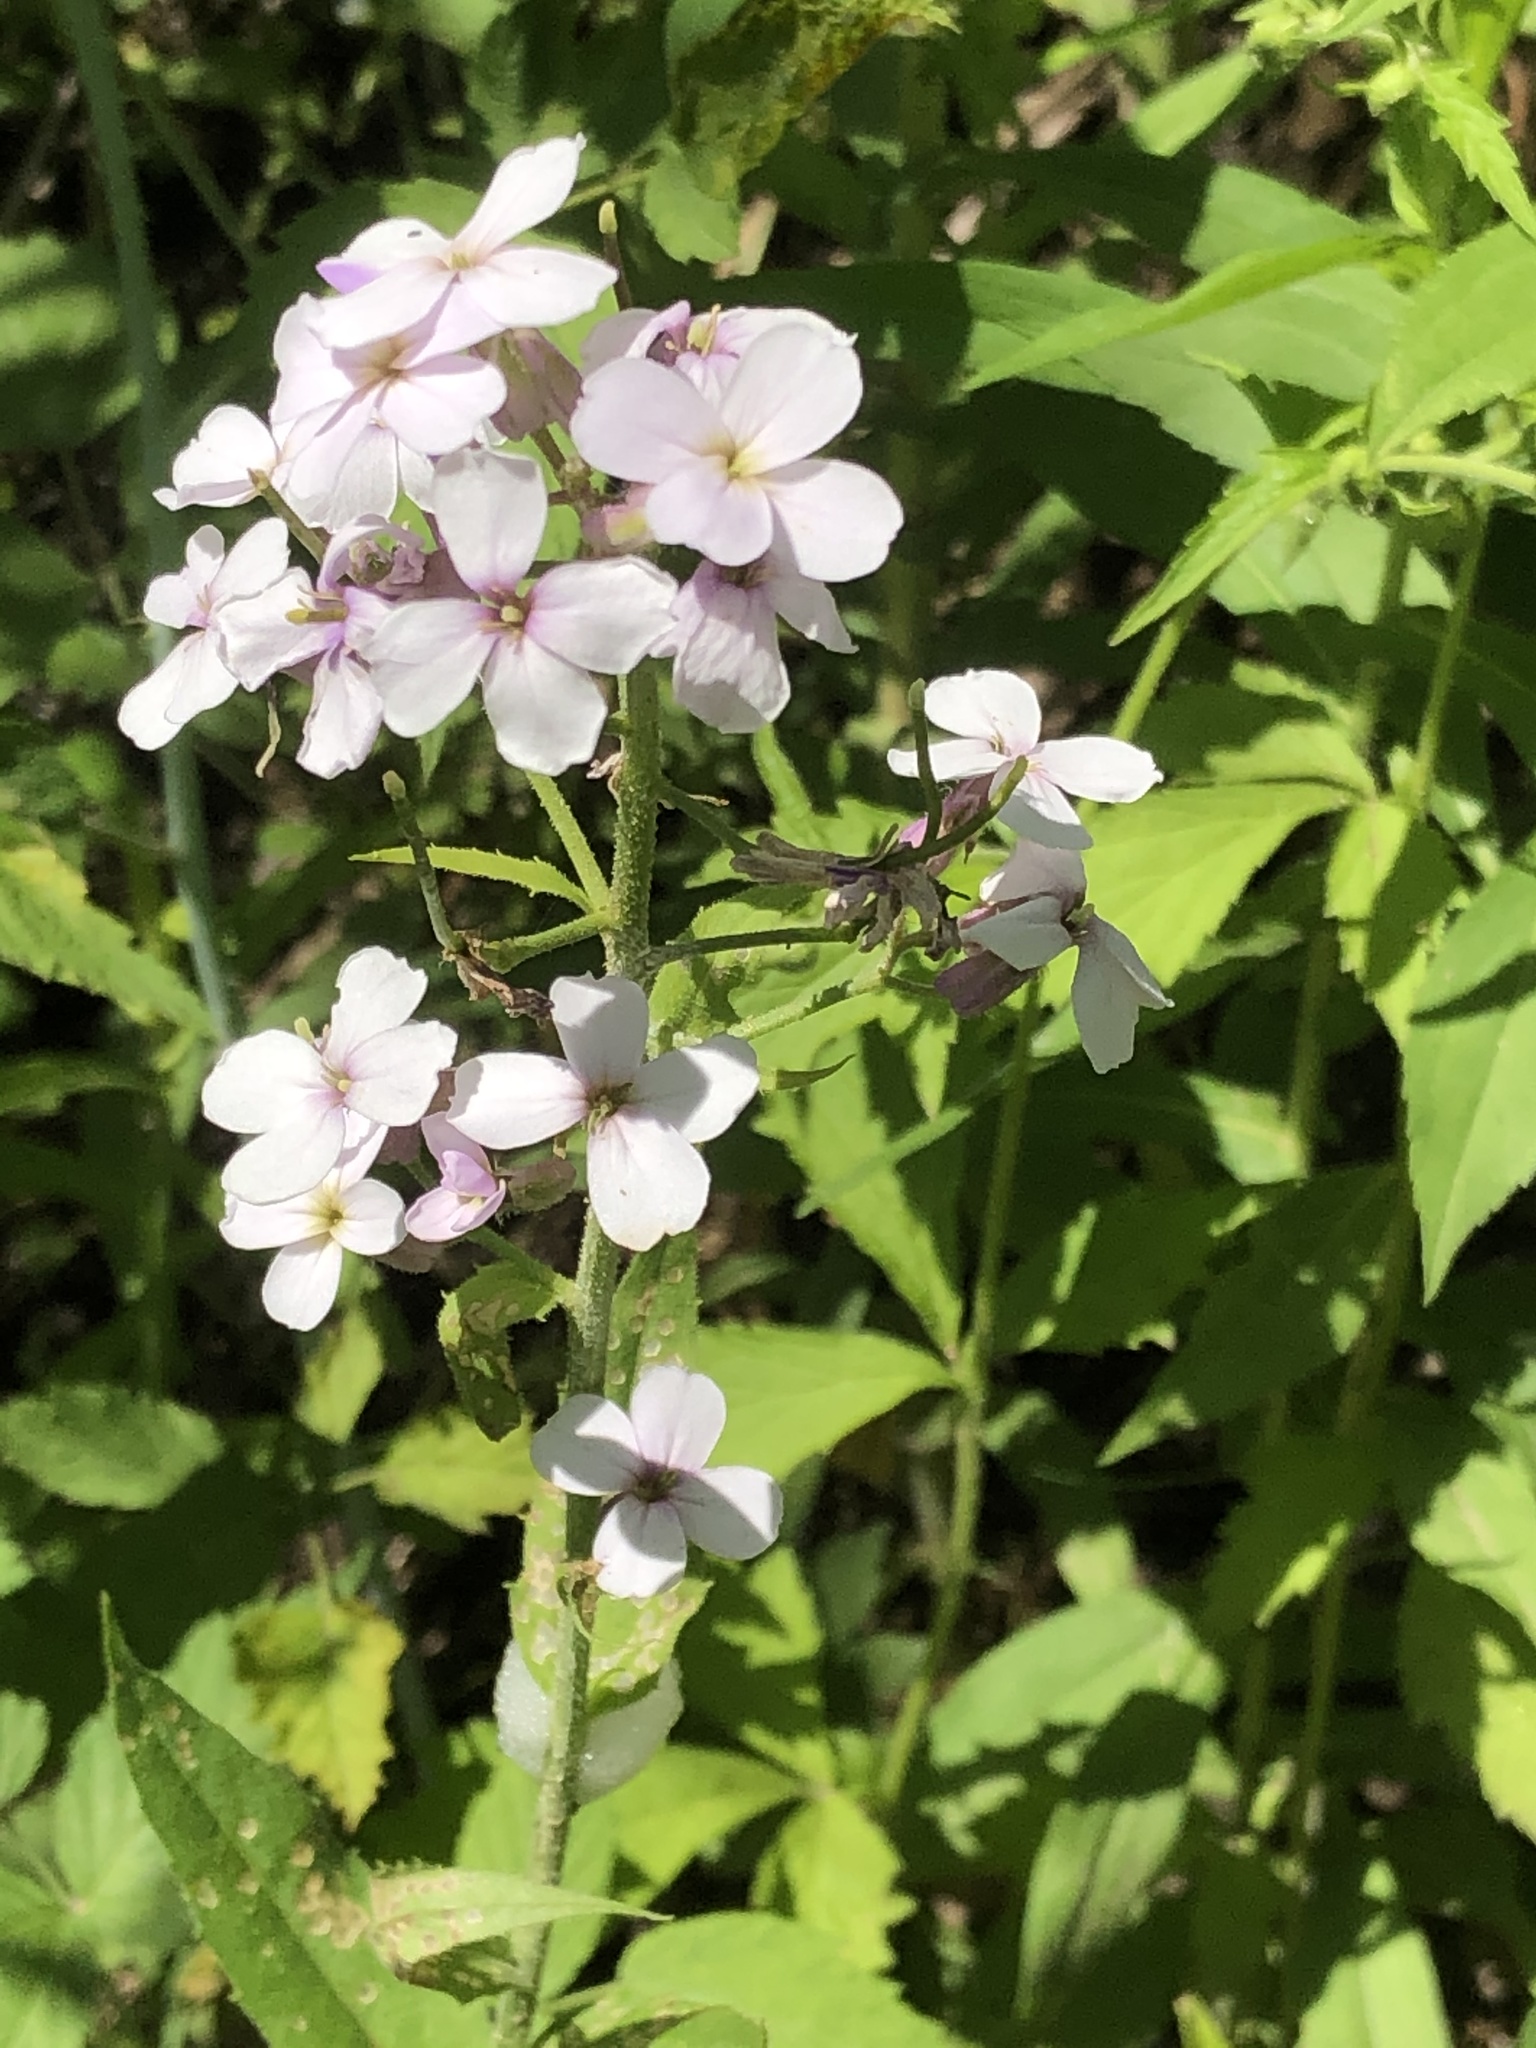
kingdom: Plantae
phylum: Tracheophyta
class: Magnoliopsida
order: Brassicales
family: Brassicaceae
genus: Hesperis
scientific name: Hesperis matronalis
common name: Dame's-violet
